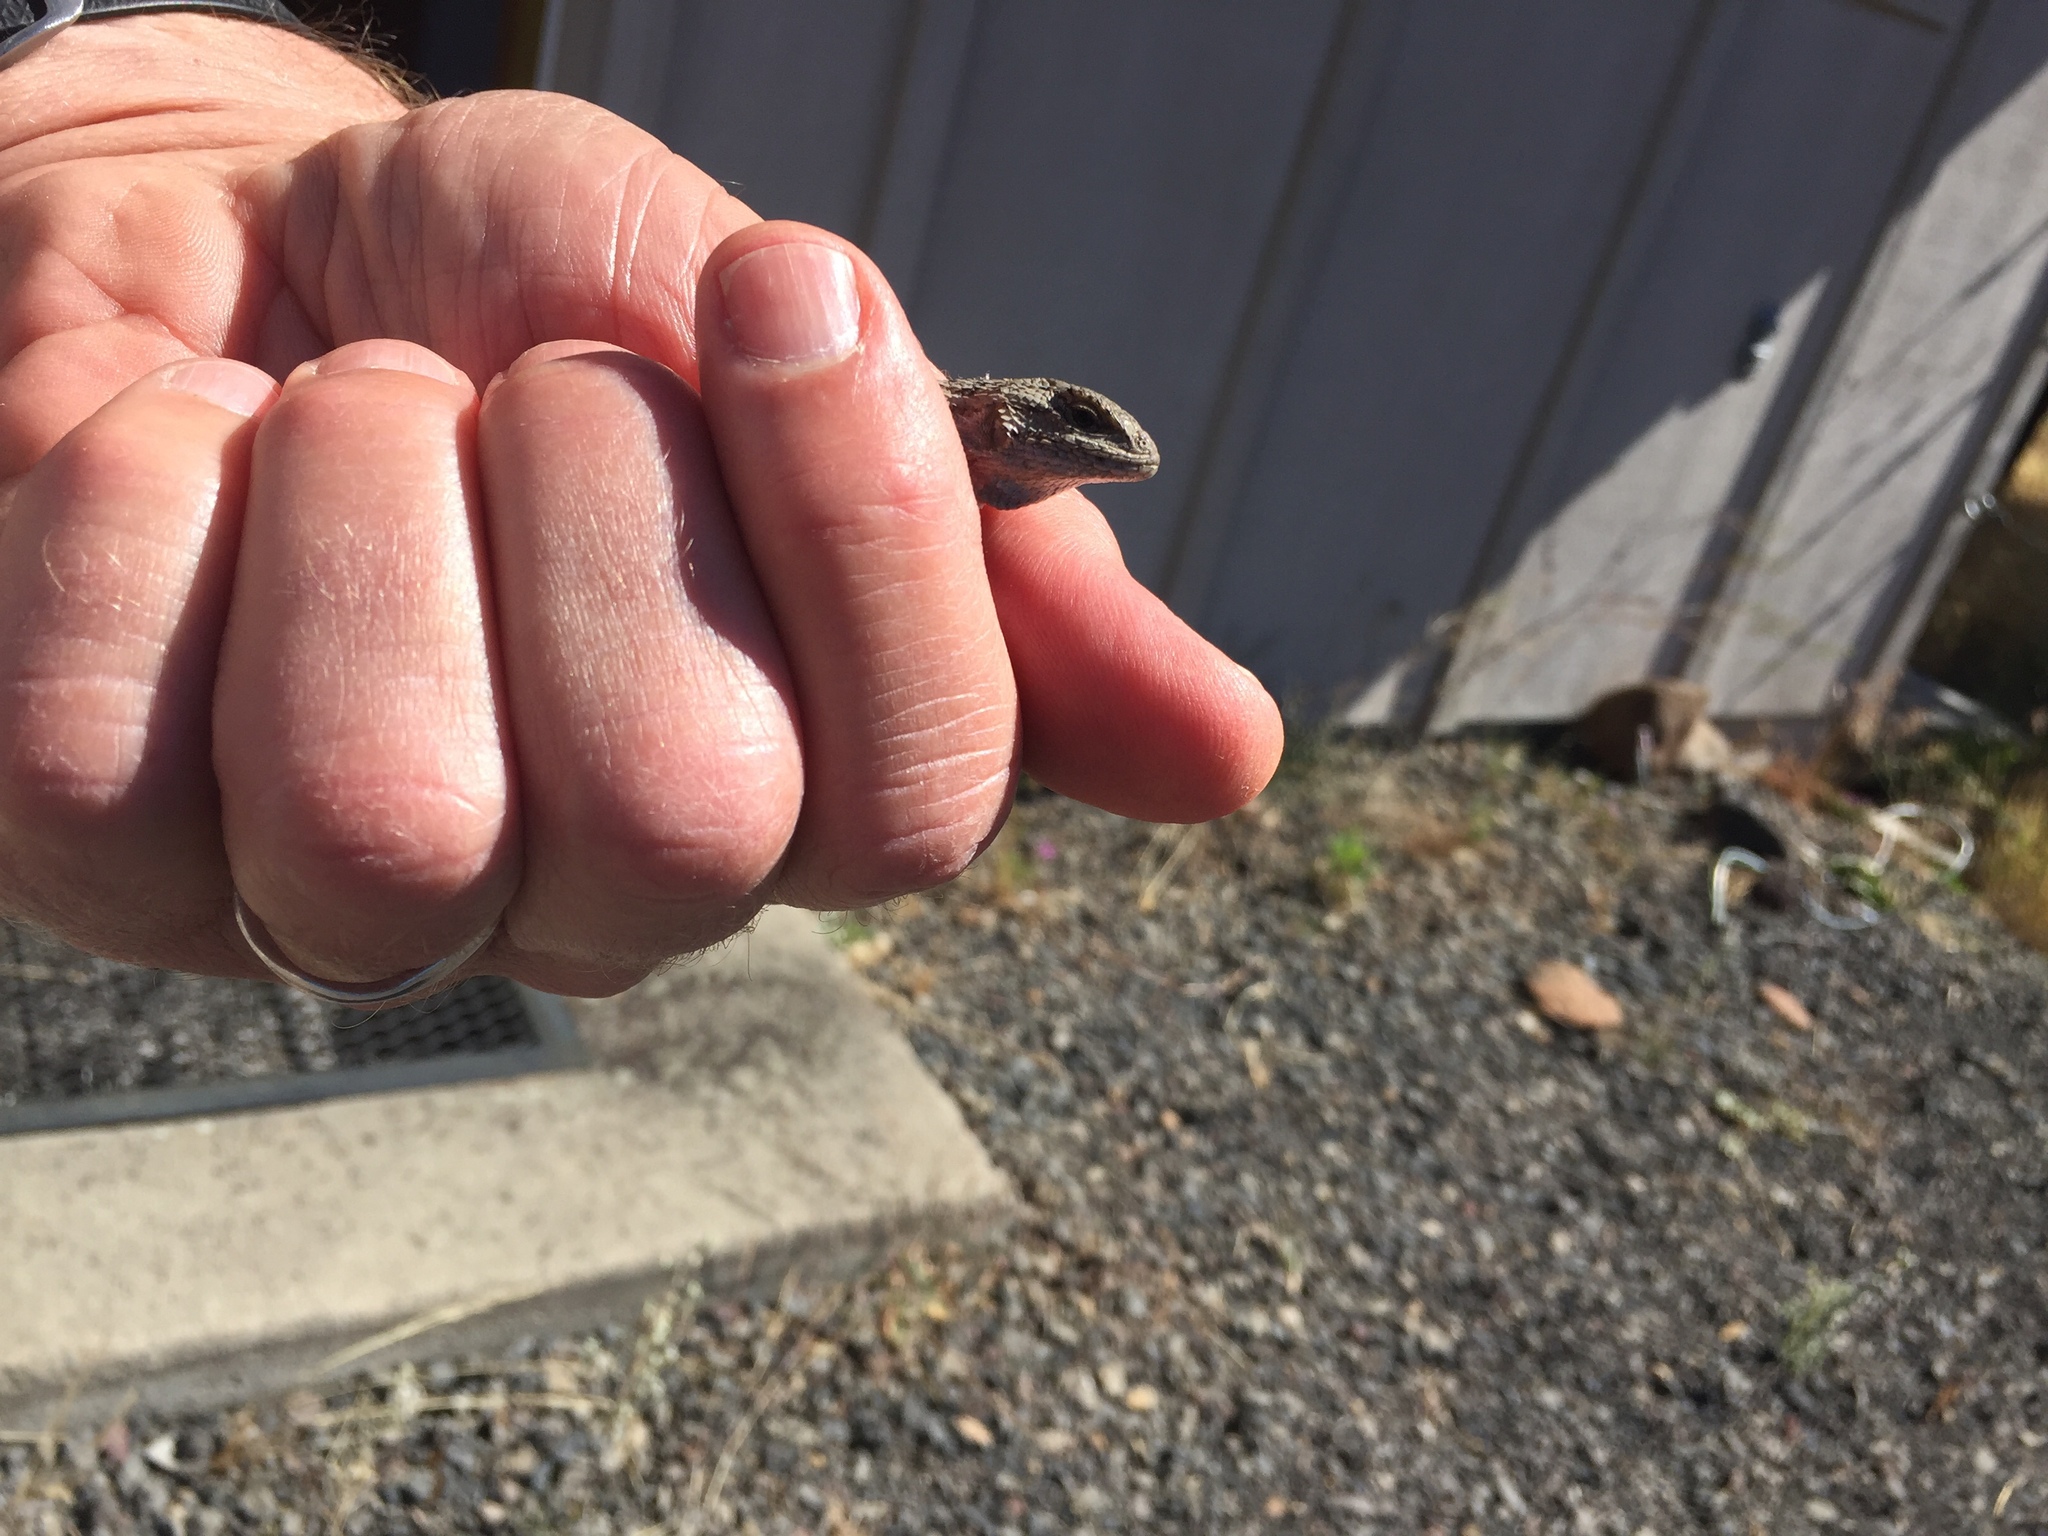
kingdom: Animalia
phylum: Chordata
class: Squamata
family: Phrynosomatidae
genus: Sceloporus
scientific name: Sceloporus occidentalis
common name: Western fence lizard
